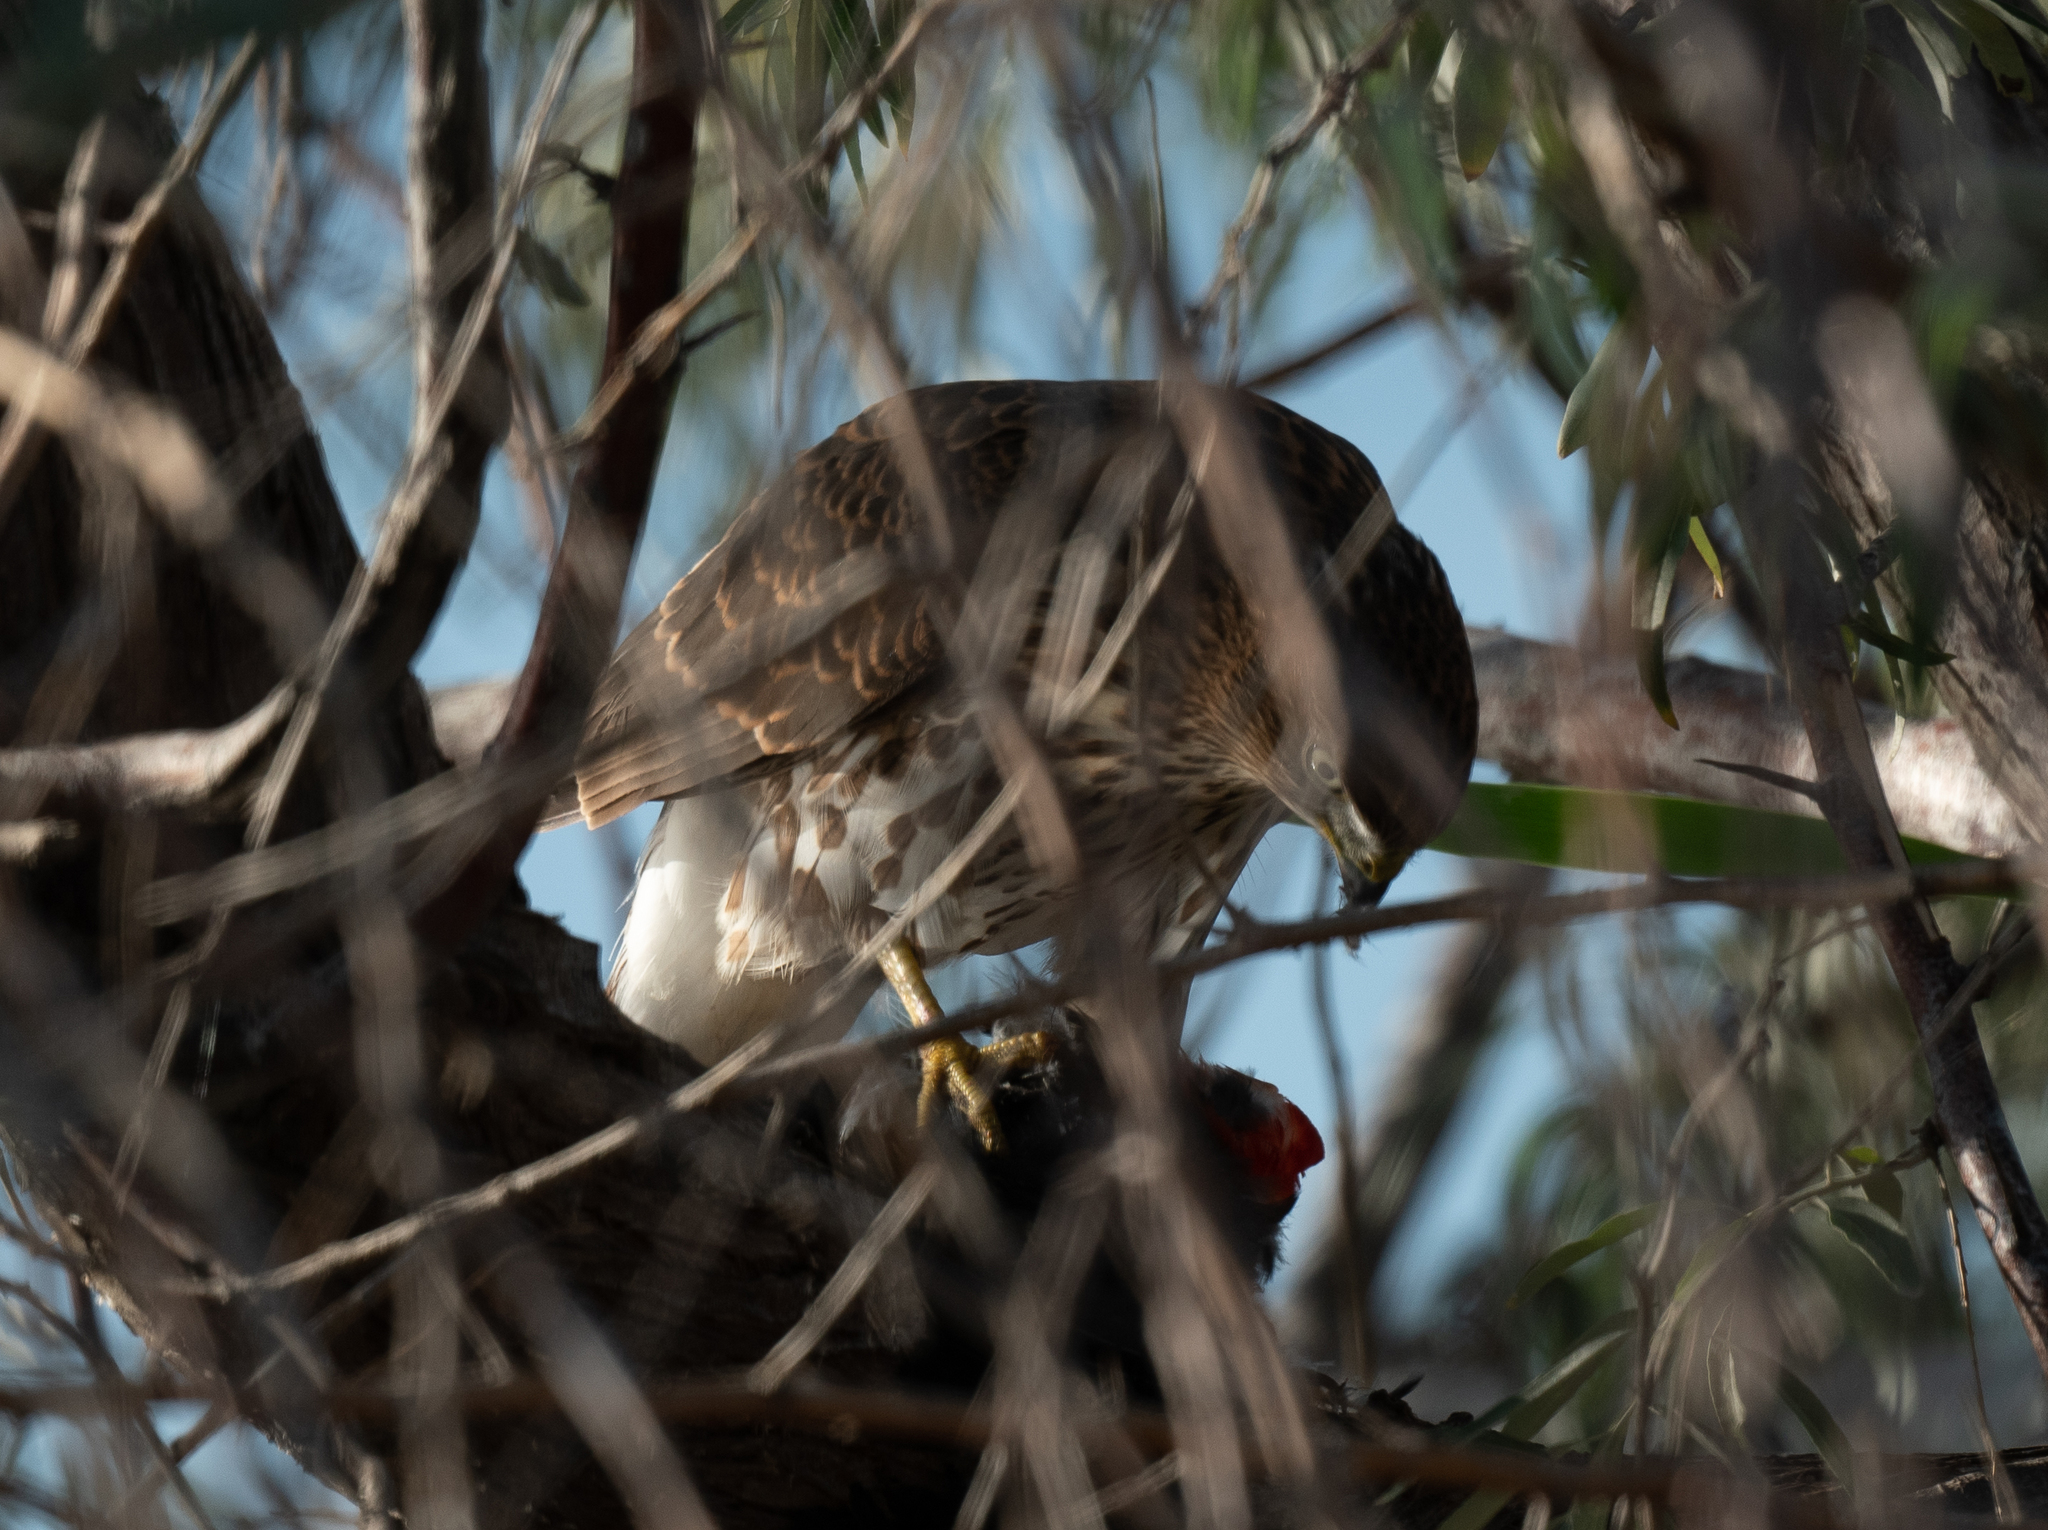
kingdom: Animalia
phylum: Chordata
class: Aves
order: Accipitriformes
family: Accipitridae
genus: Accipiter
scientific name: Accipiter cooperii
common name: Cooper's hawk
